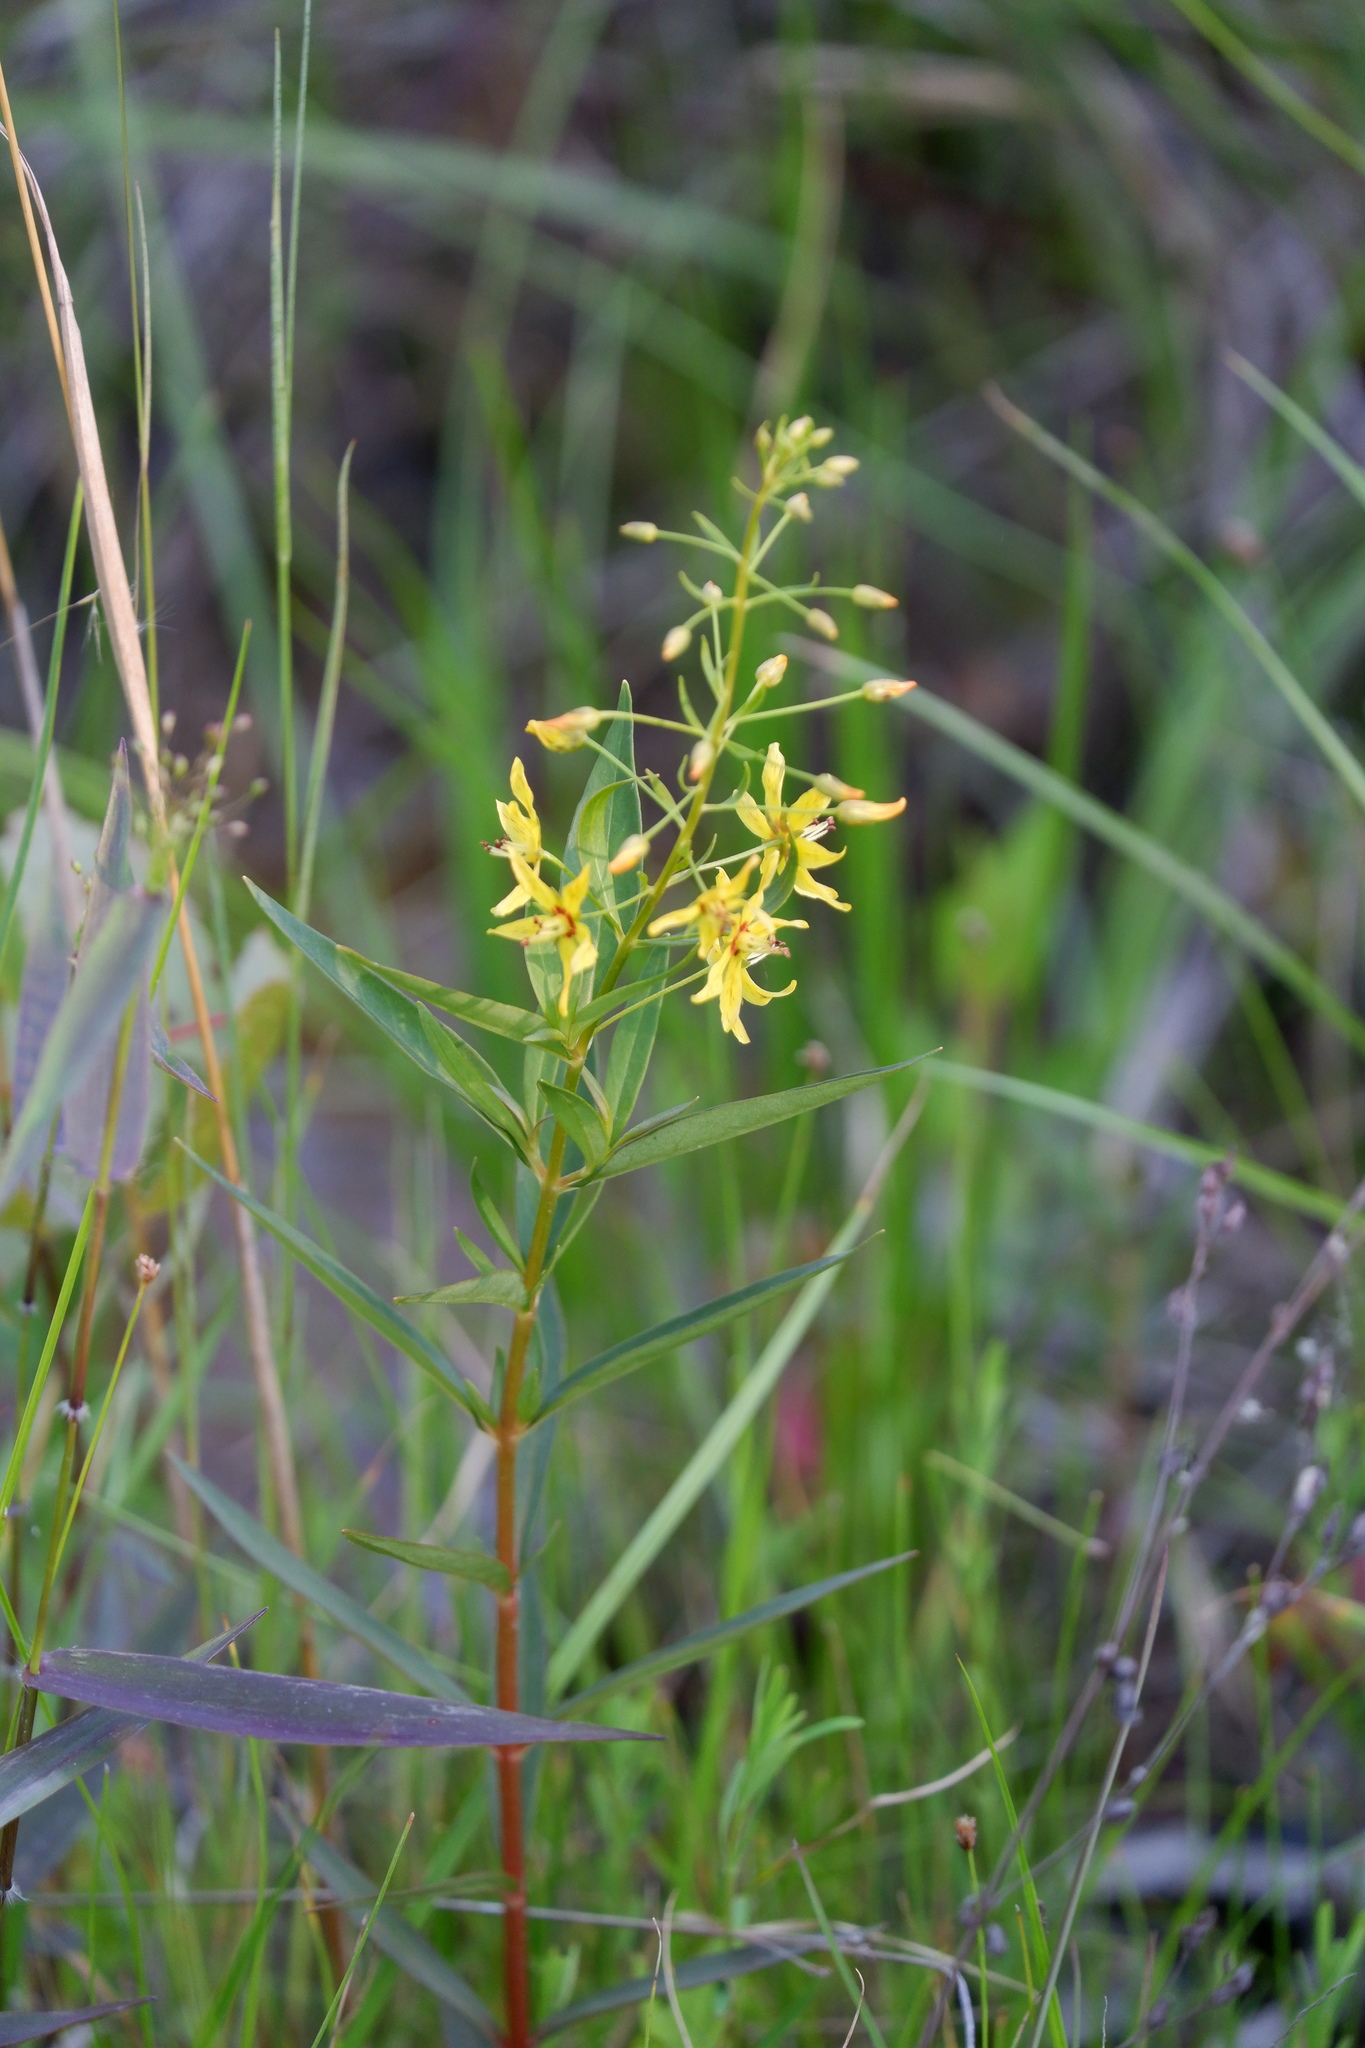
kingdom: Plantae
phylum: Tracheophyta
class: Magnoliopsida
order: Ericales
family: Primulaceae
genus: Lysimachia
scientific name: Lysimachia terrestris
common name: Lake loosestrife
